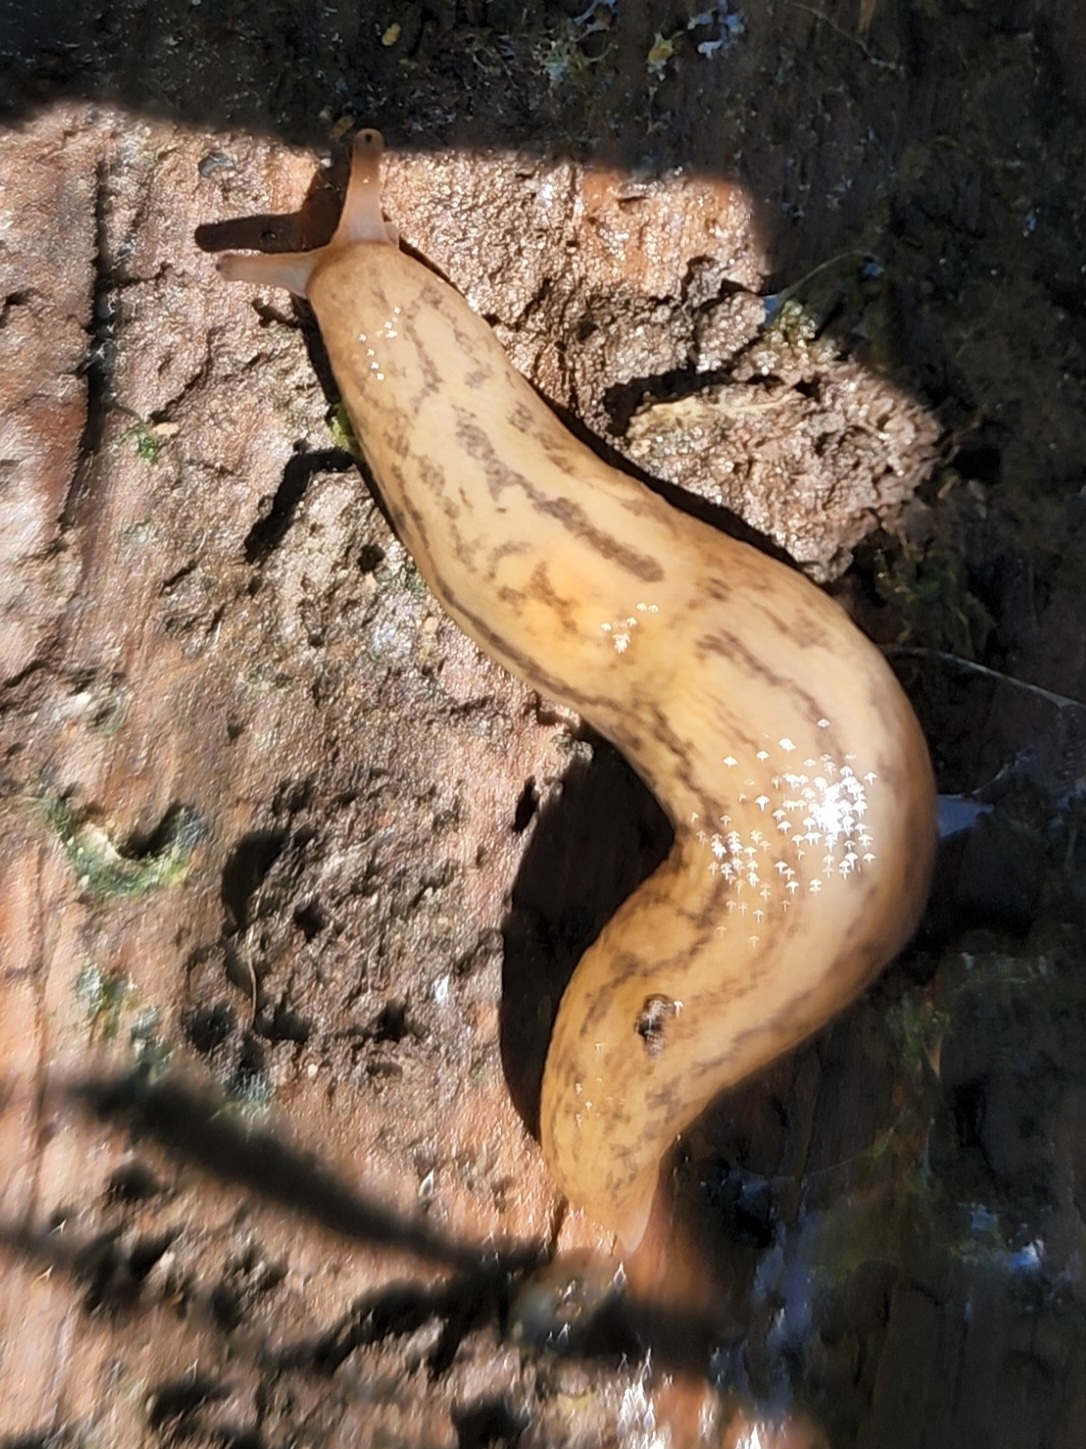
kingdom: Animalia
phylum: Mollusca
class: Gastropoda
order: Stylommatophora
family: Limacidae
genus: Ambigolimax
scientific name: Ambigolimax
